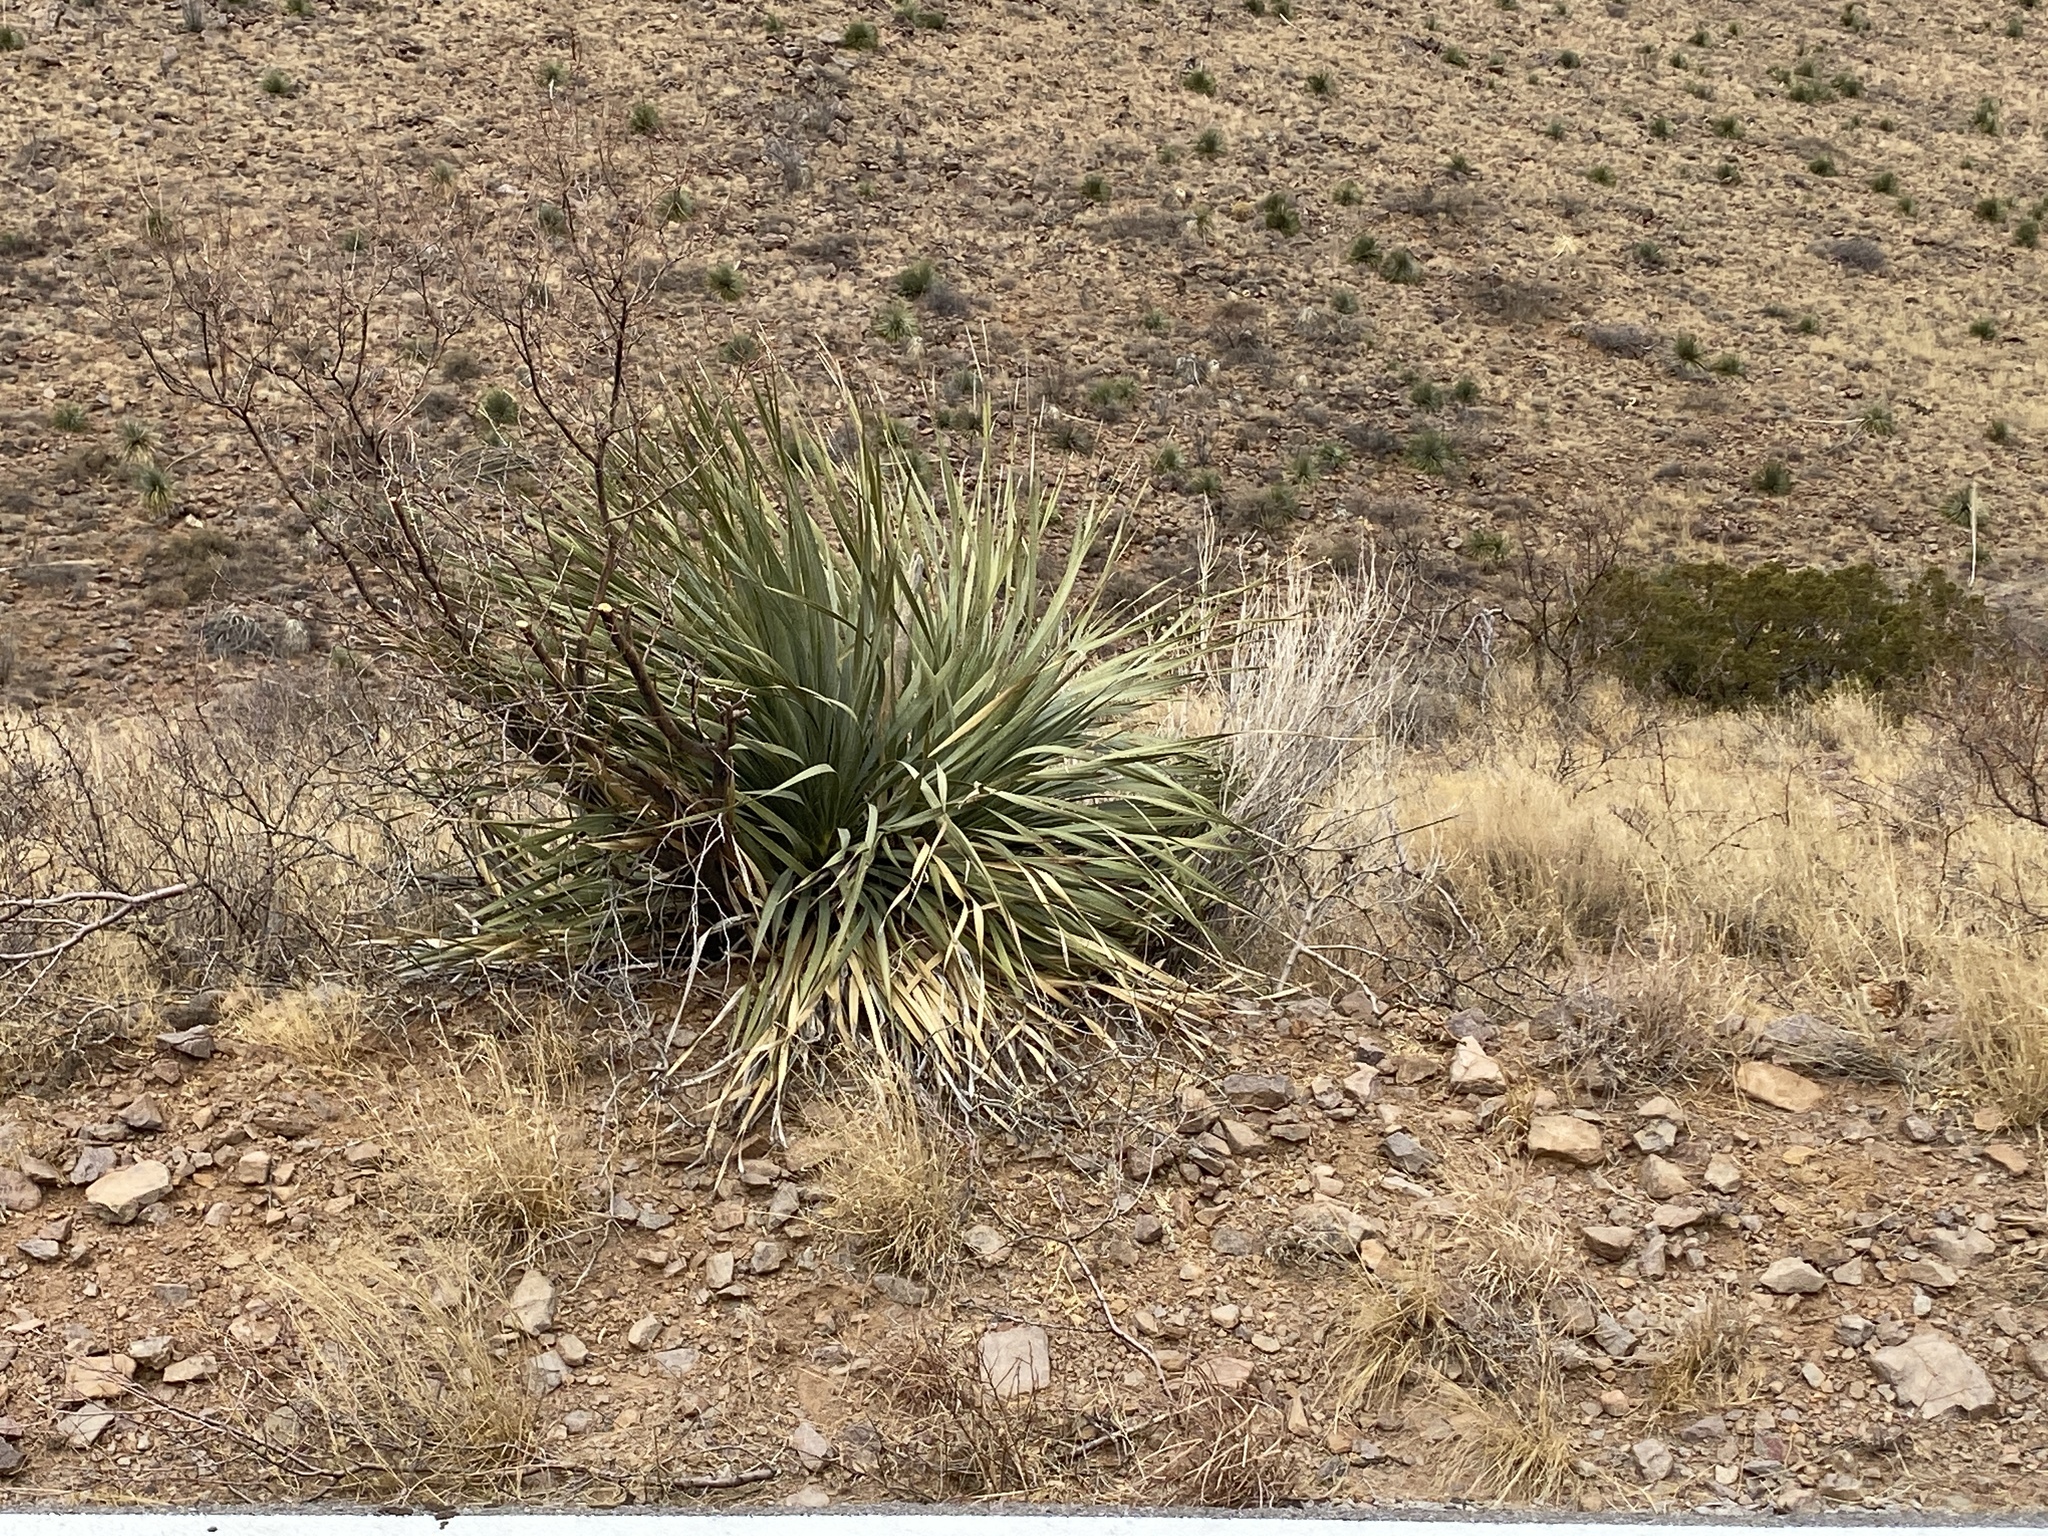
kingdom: Plantae
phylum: Tracheophyta
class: Liliopsida
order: Asparagales
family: Asparagaceae
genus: Dasylirion
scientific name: Dasylirion wheeleri
